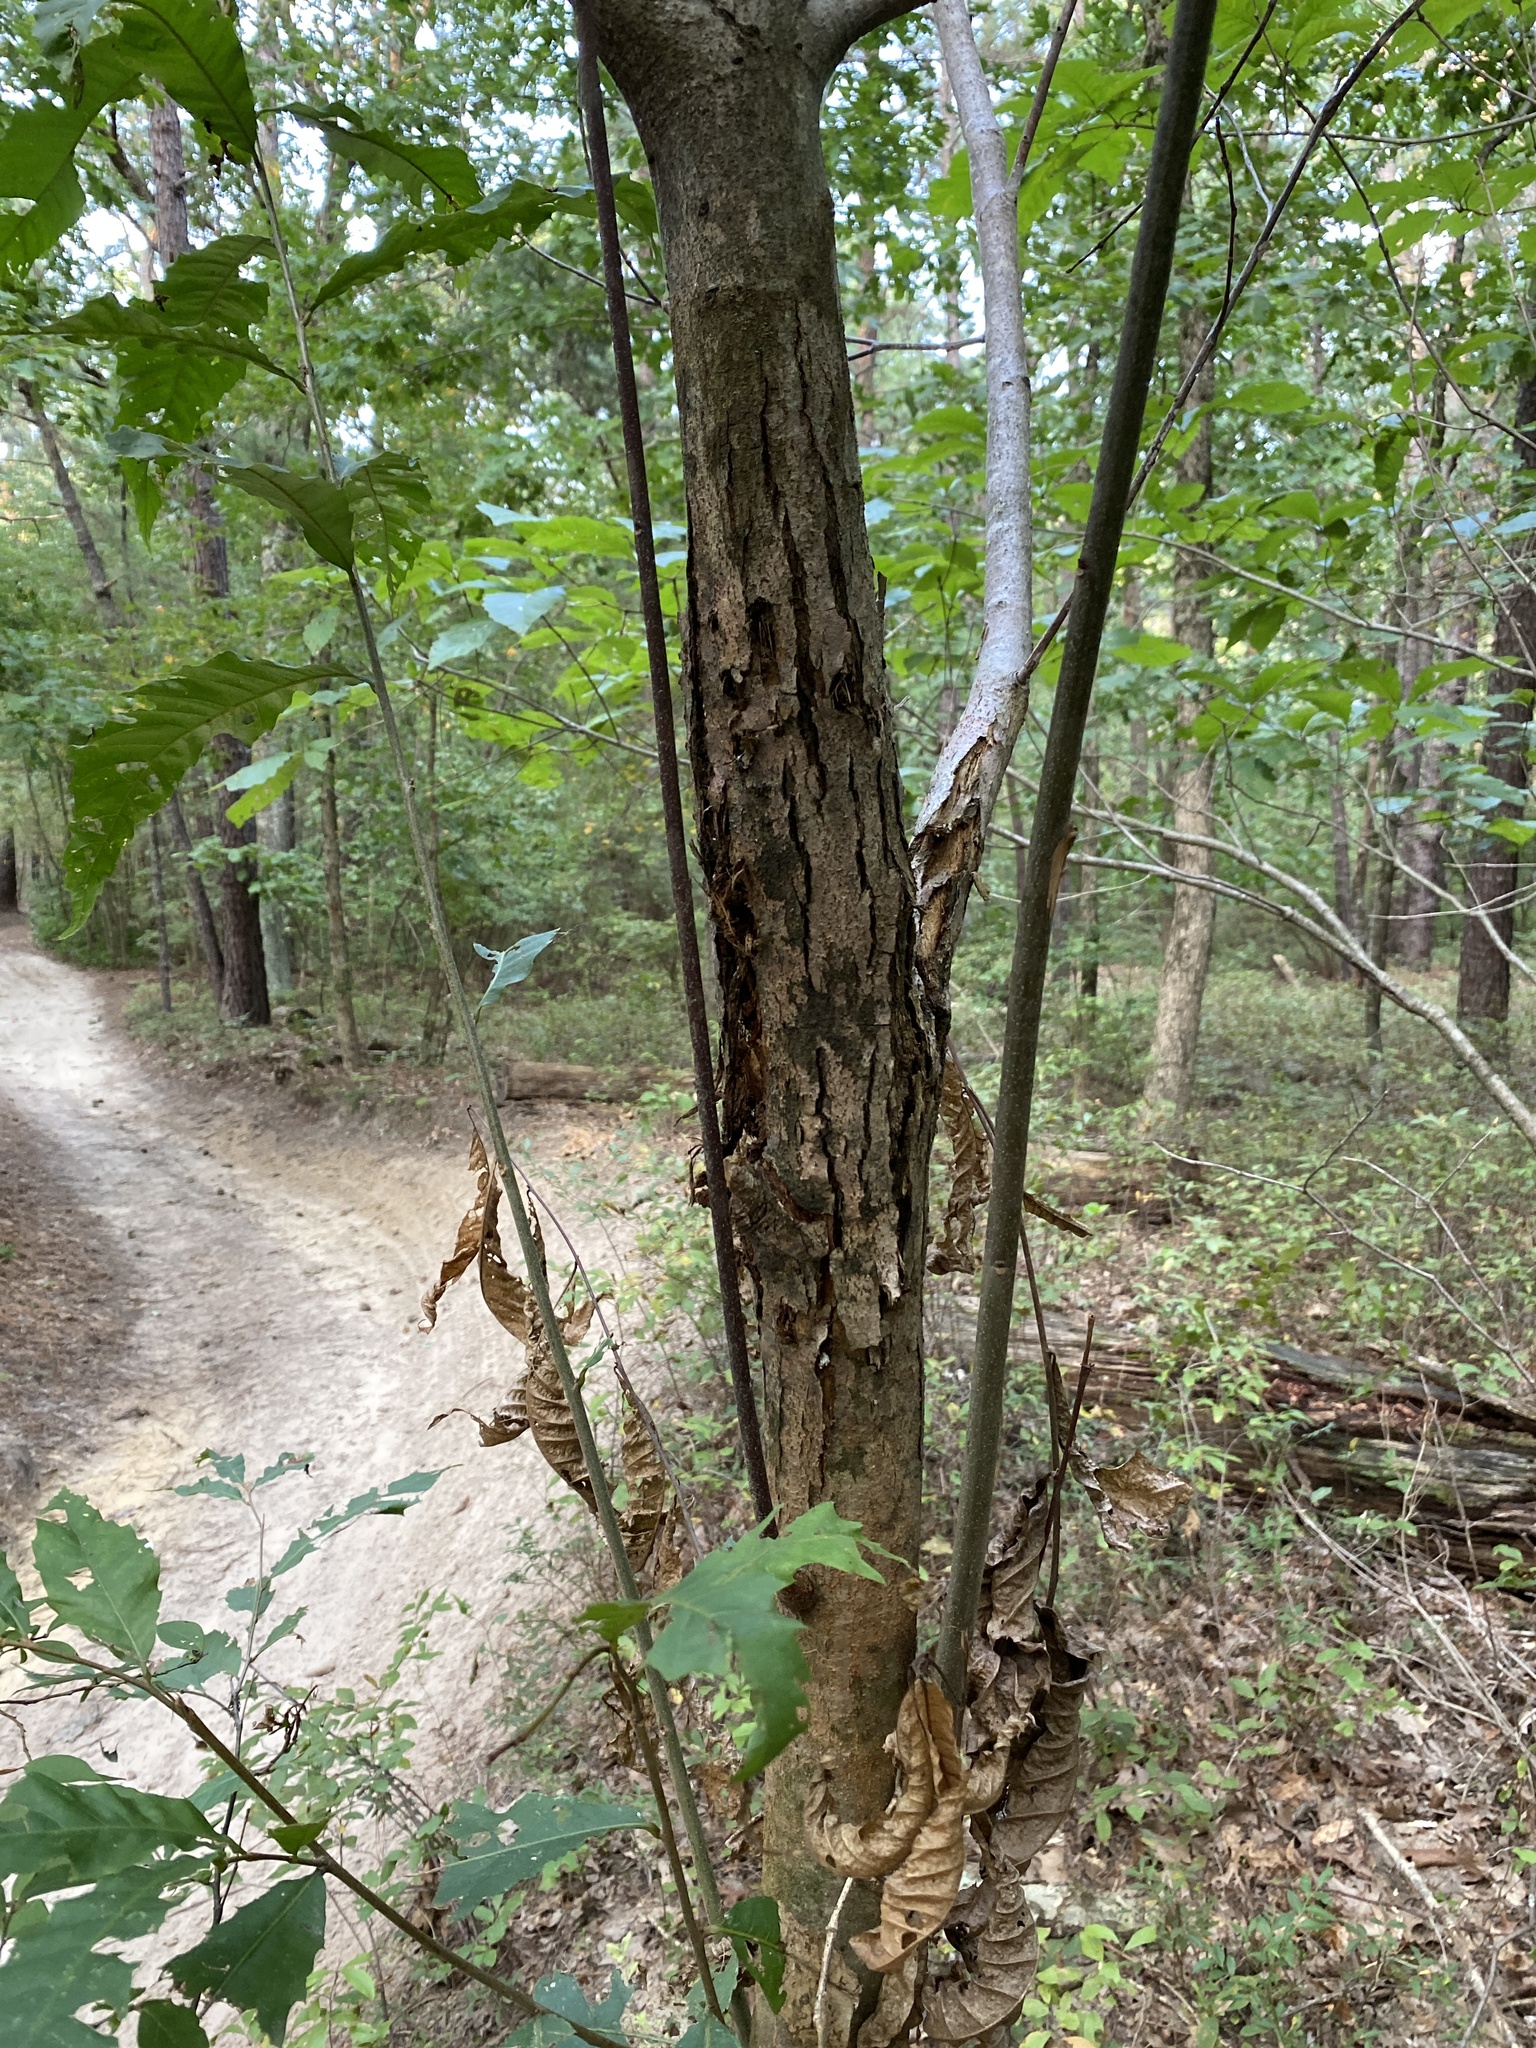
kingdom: Plantae
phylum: Tracheophyta
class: Magnoliopsida
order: Fagales
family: Fagaceae
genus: Castanea
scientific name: Castanea dentata
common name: American chestnut
